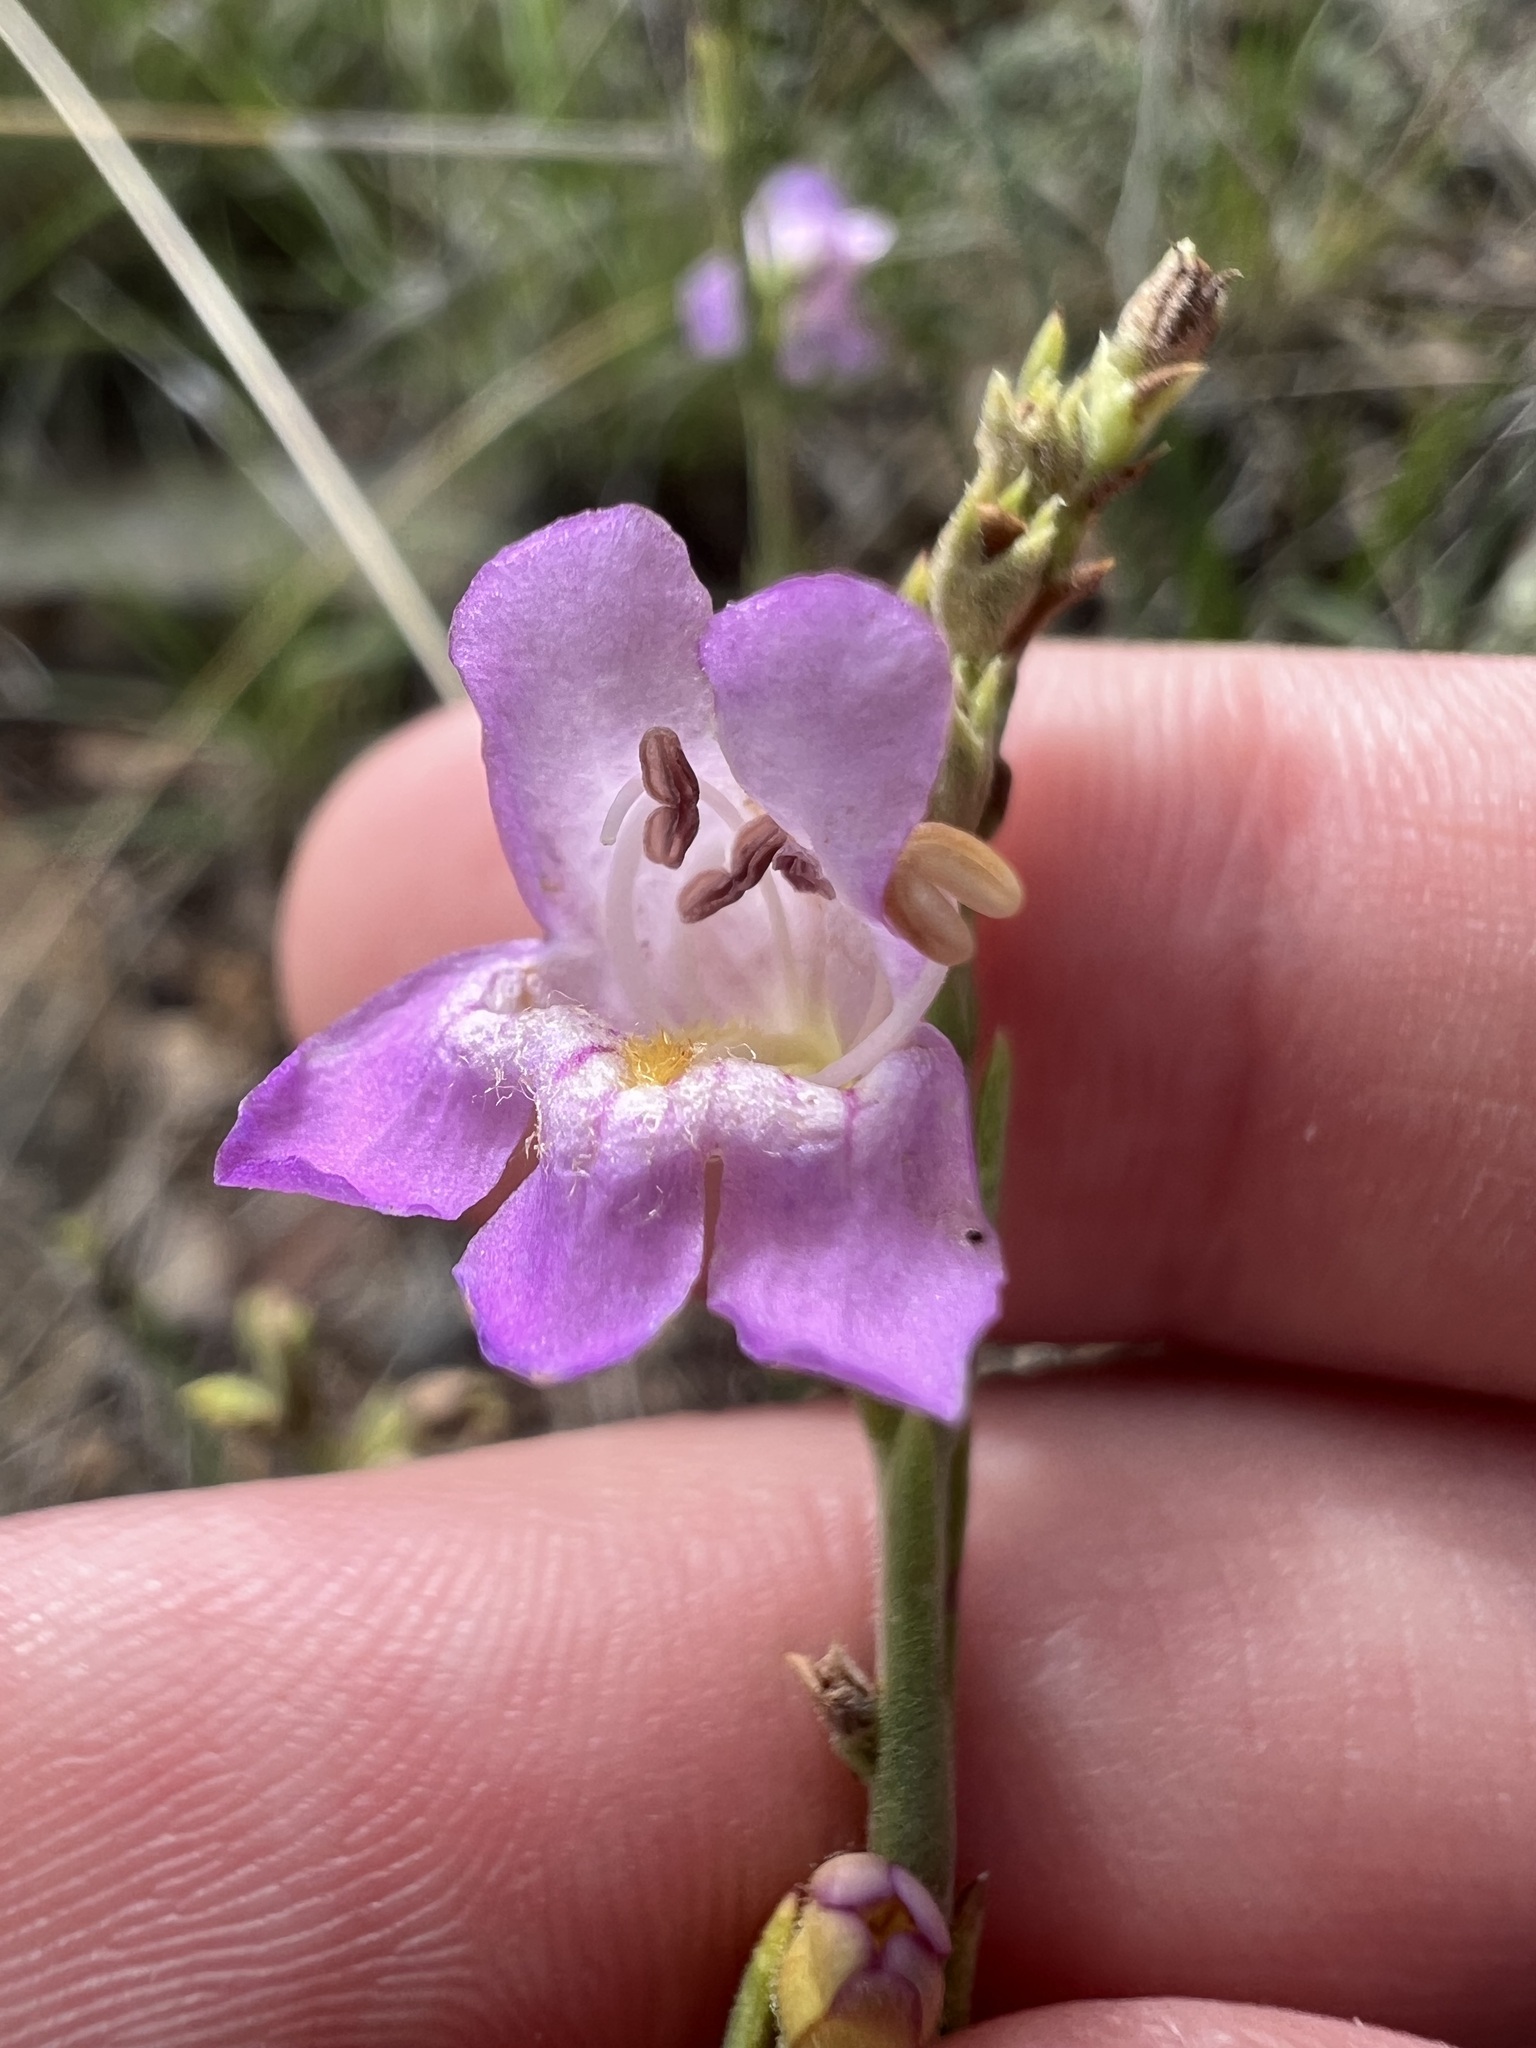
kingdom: Plantae
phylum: Tracheophyta
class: Magnoliopsida
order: Lamiales
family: Plantaginaceae
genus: Penstemon
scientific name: Penstemon linarioides
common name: Siler's penstemon
